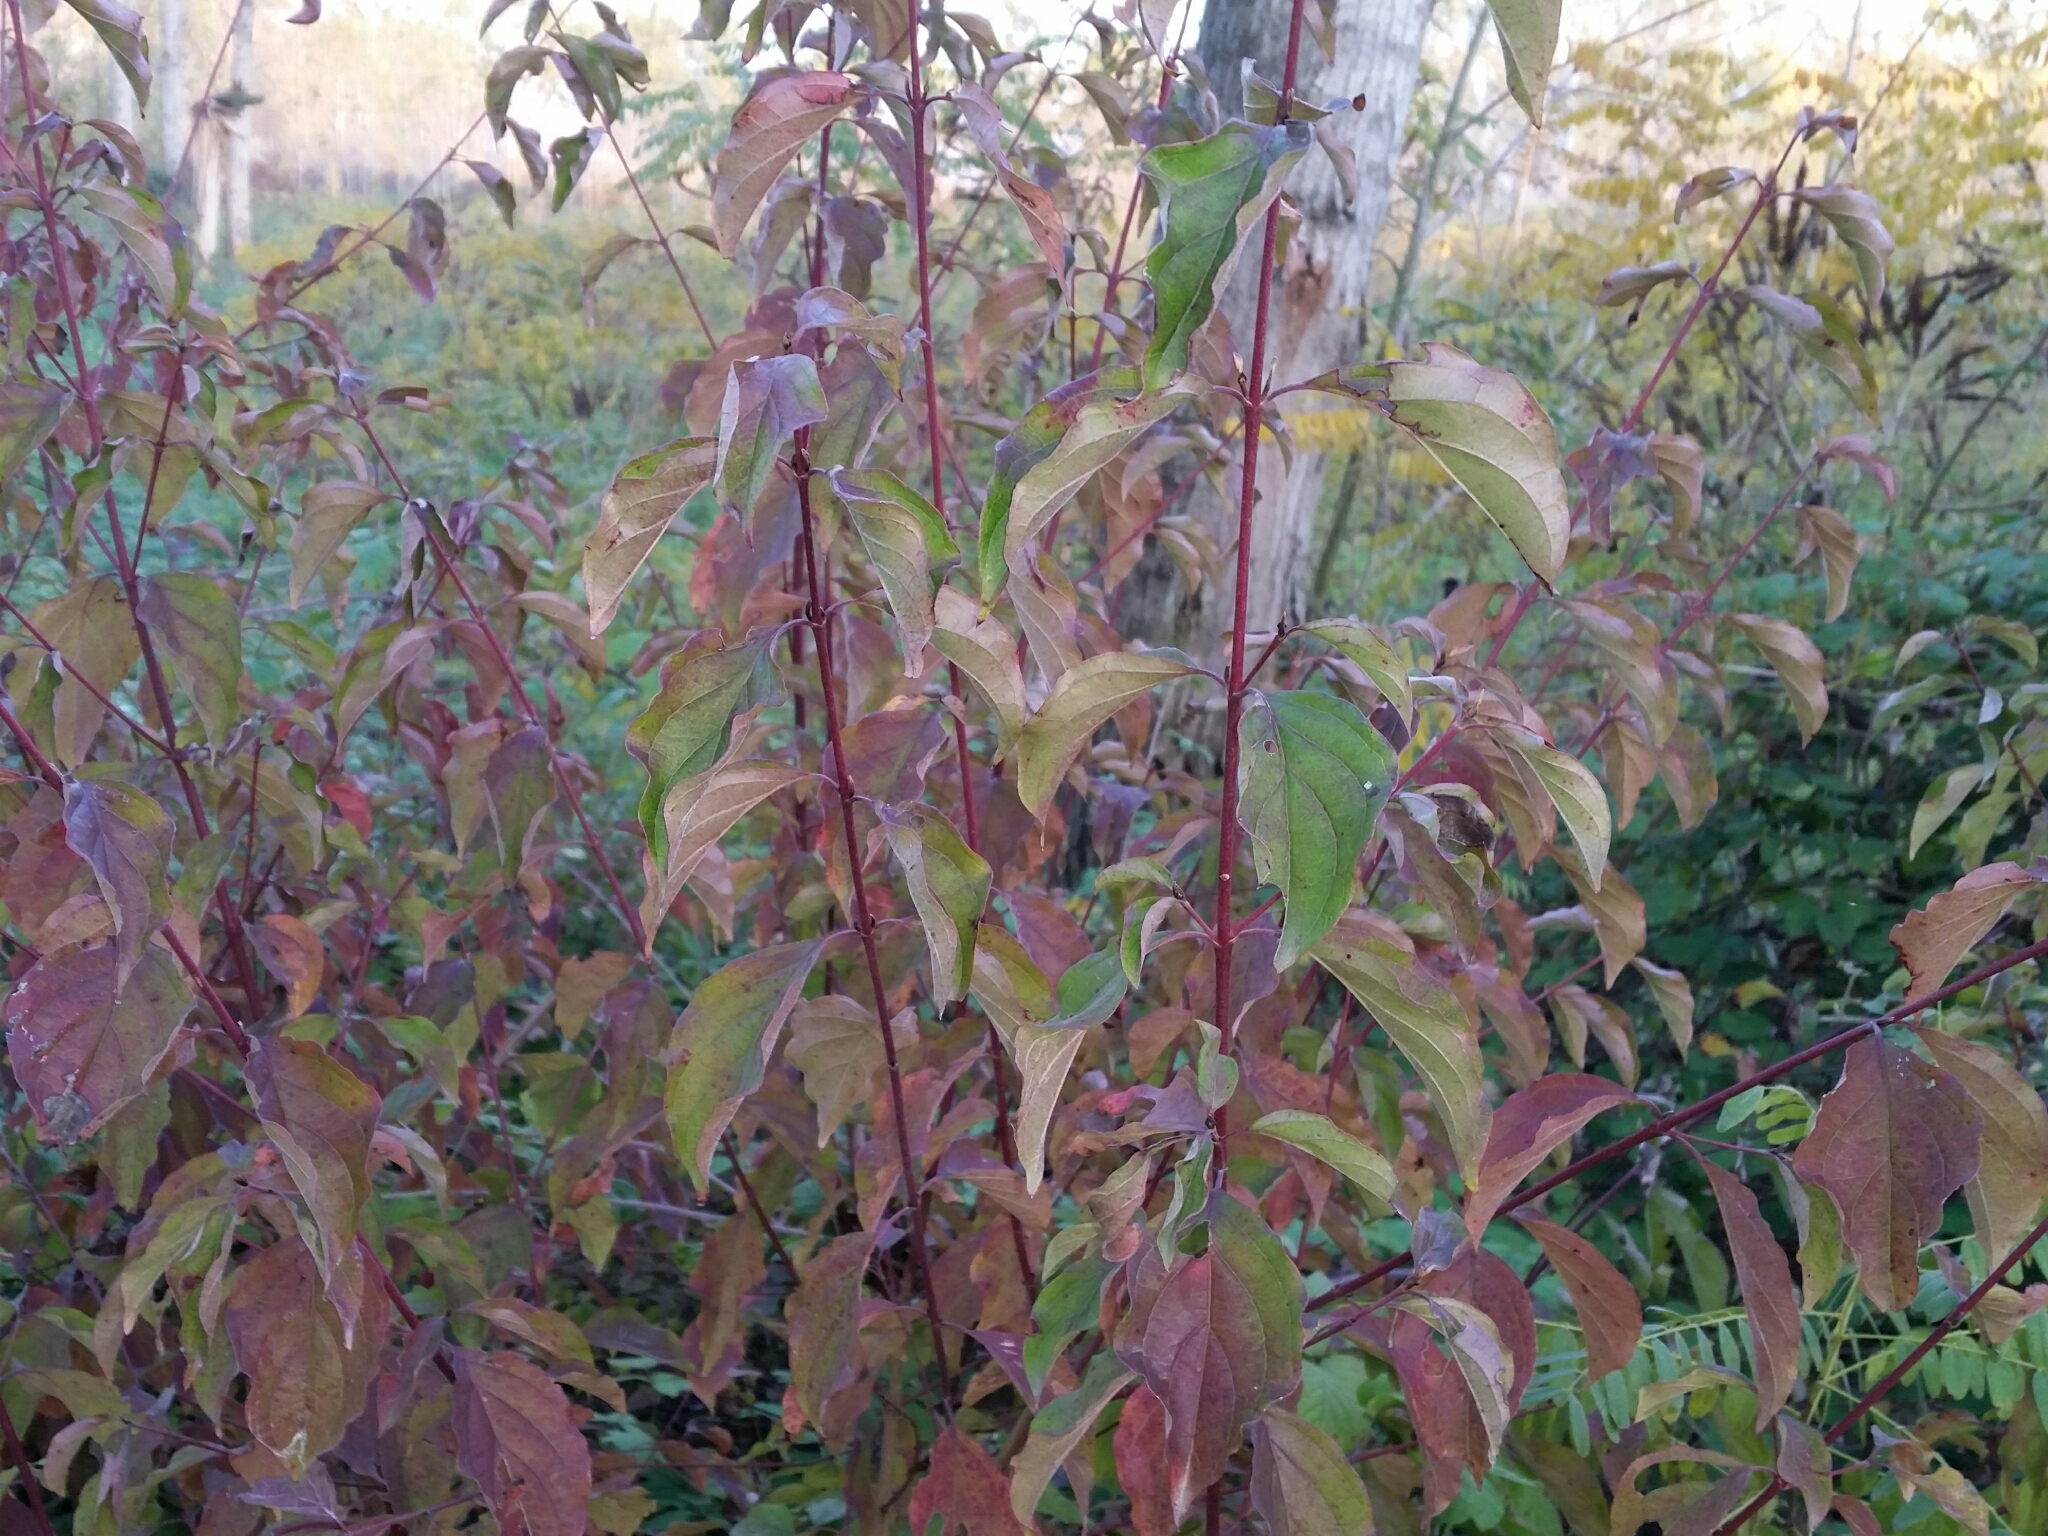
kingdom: Plantae
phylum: Tracheophyta
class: Magnoliopsida
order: Cornales
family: Cornaceae
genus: Cornus
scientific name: Cornus sanguinea
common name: Dogwood
